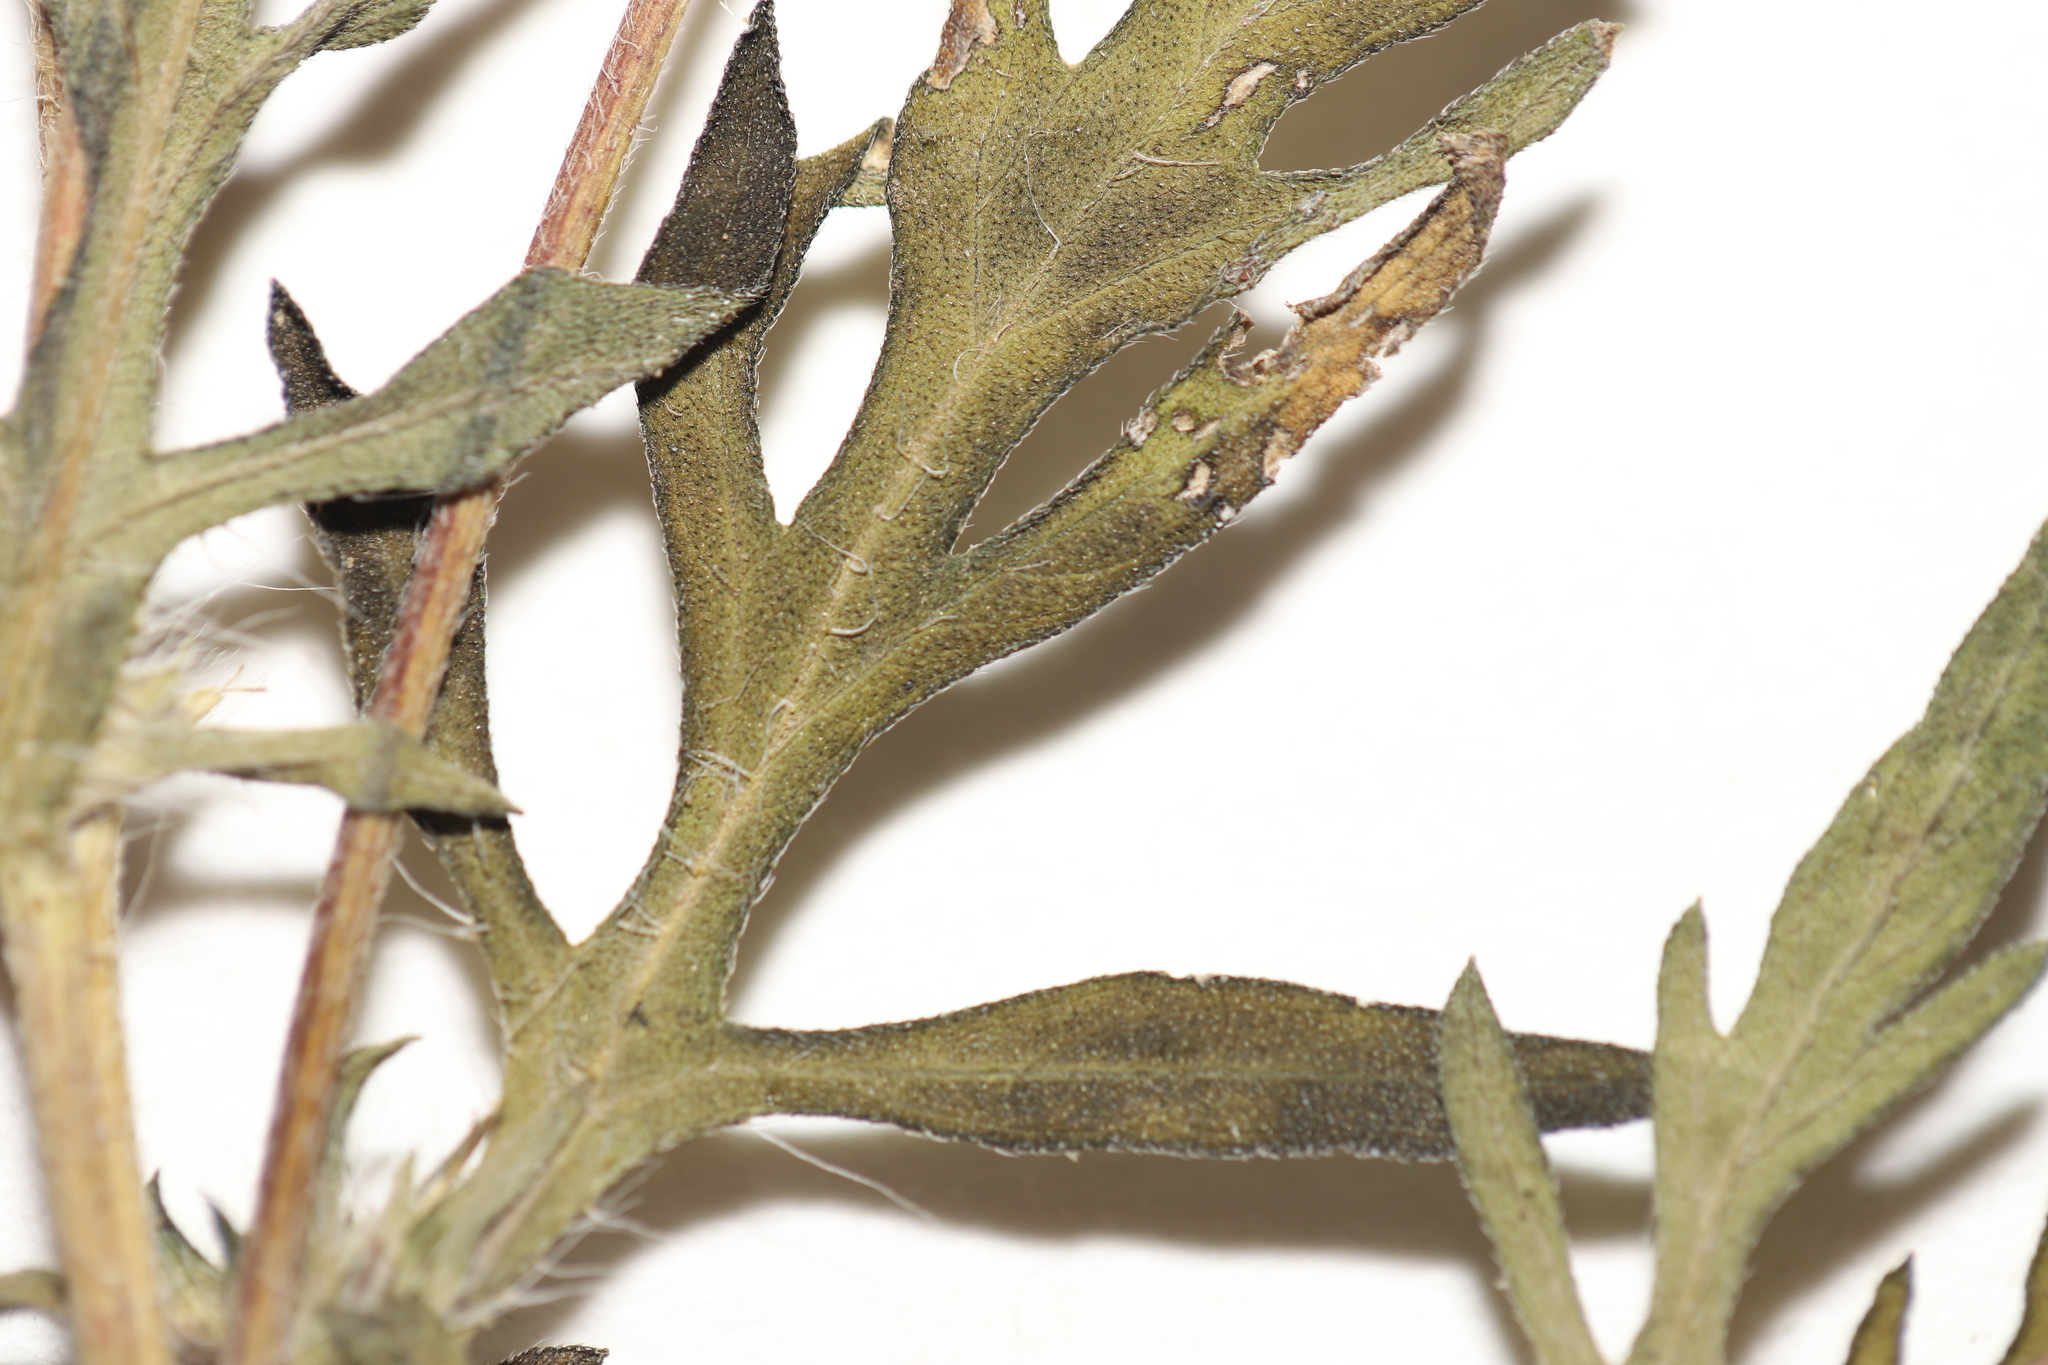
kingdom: Plantae
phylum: Tracheophyta
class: Magnoliopsida
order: Asterales
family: Asteraceae
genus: Ambrosia
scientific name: Ambrosia psilostachya
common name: Perennial ragweed
